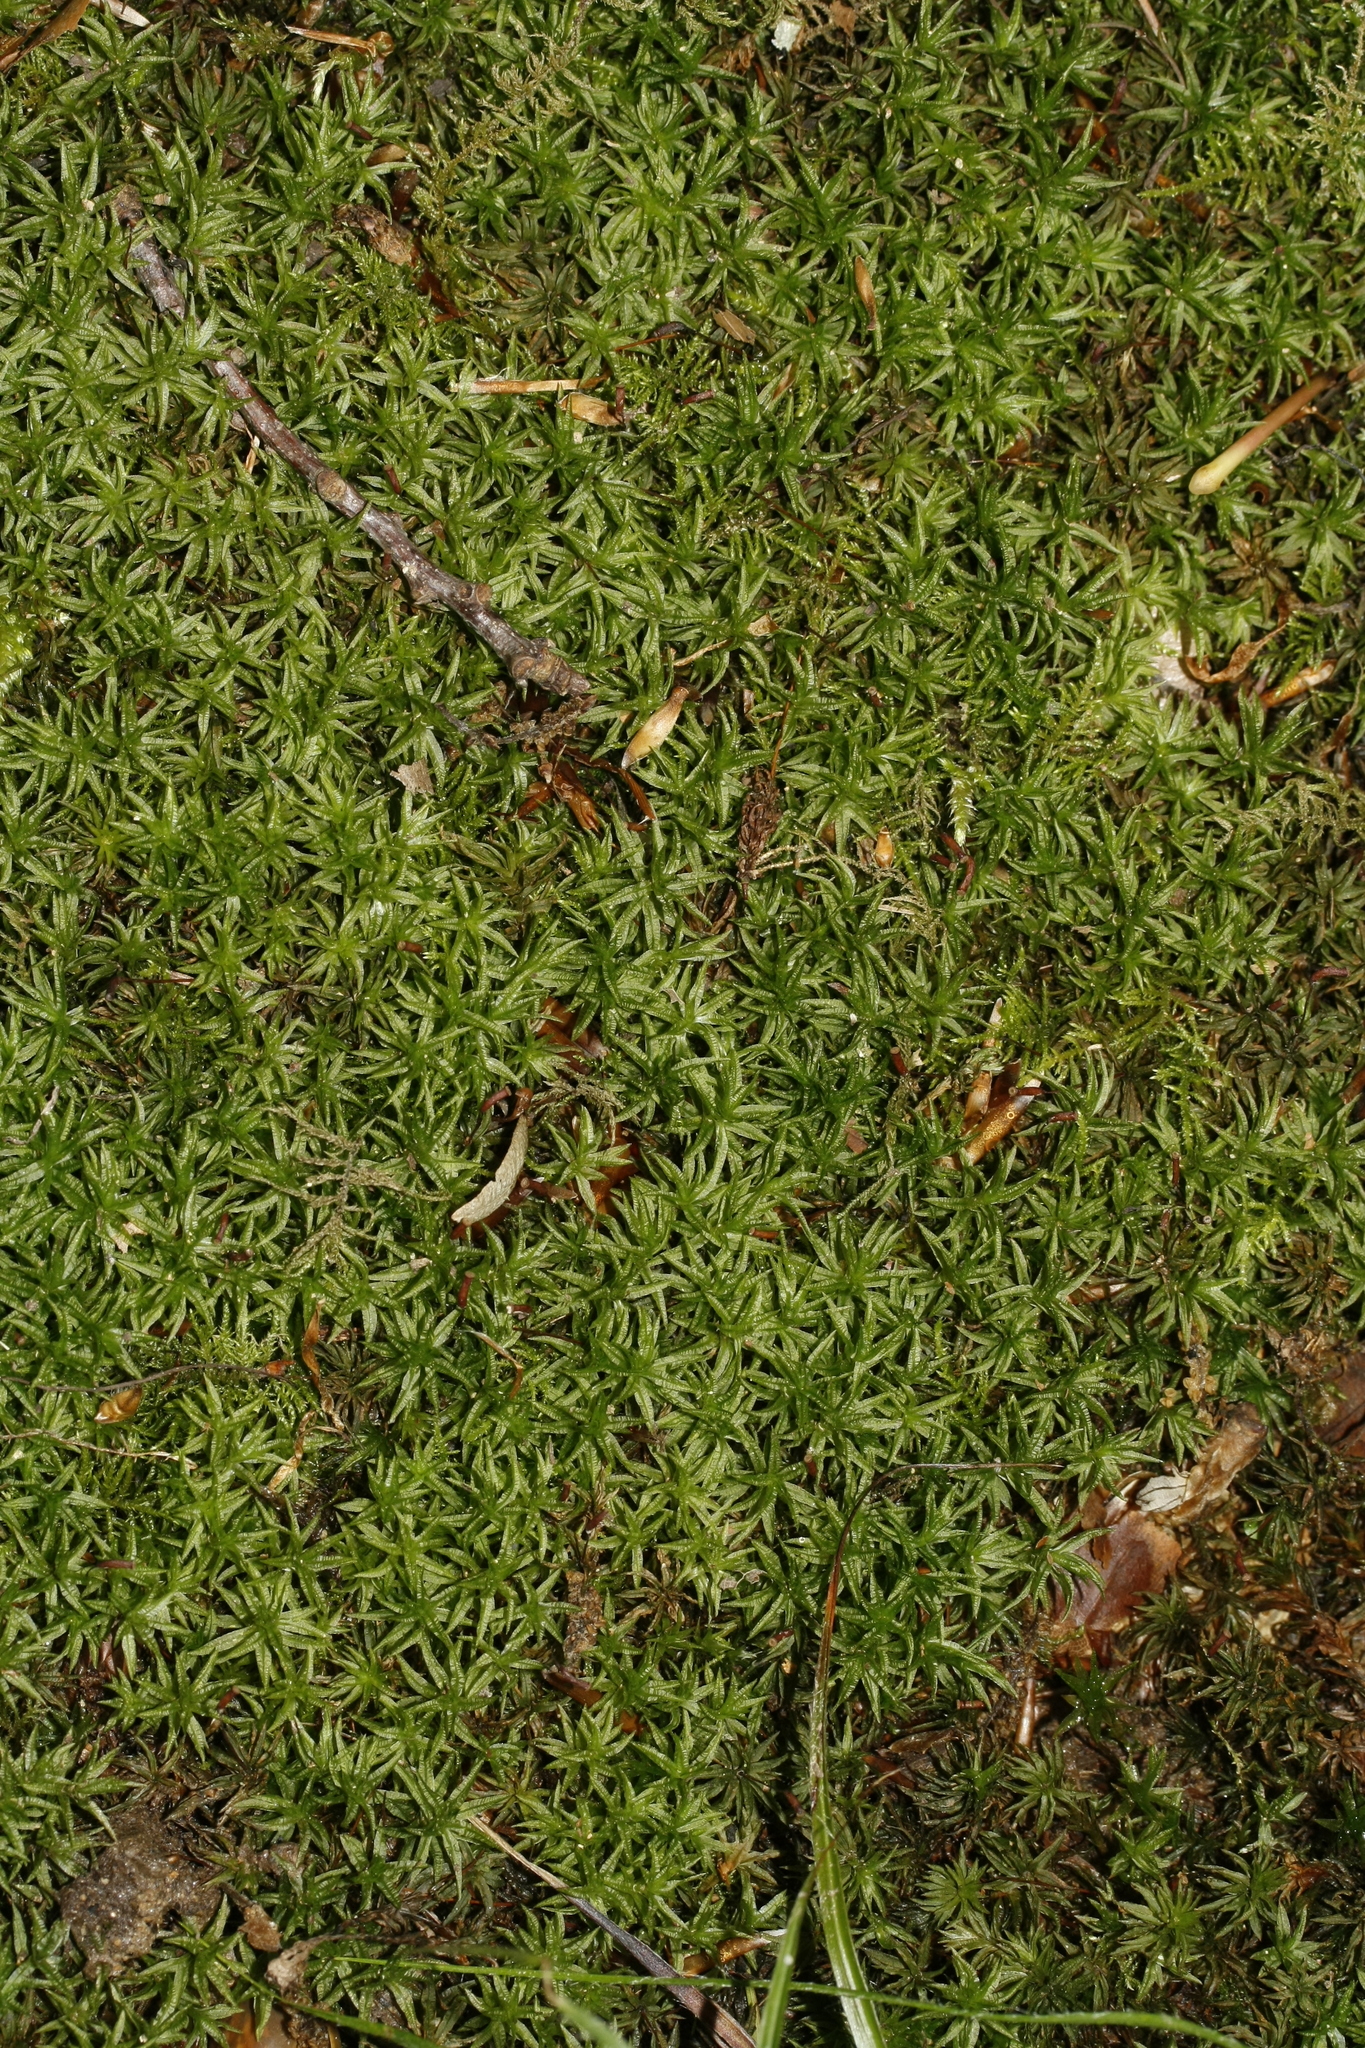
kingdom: Plantae
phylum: Bryophyta
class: Polytrichopsida
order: Polytrichales
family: Polytrichaceae
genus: Atrichum
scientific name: Atrichum undulatum
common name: Common smoothcap
